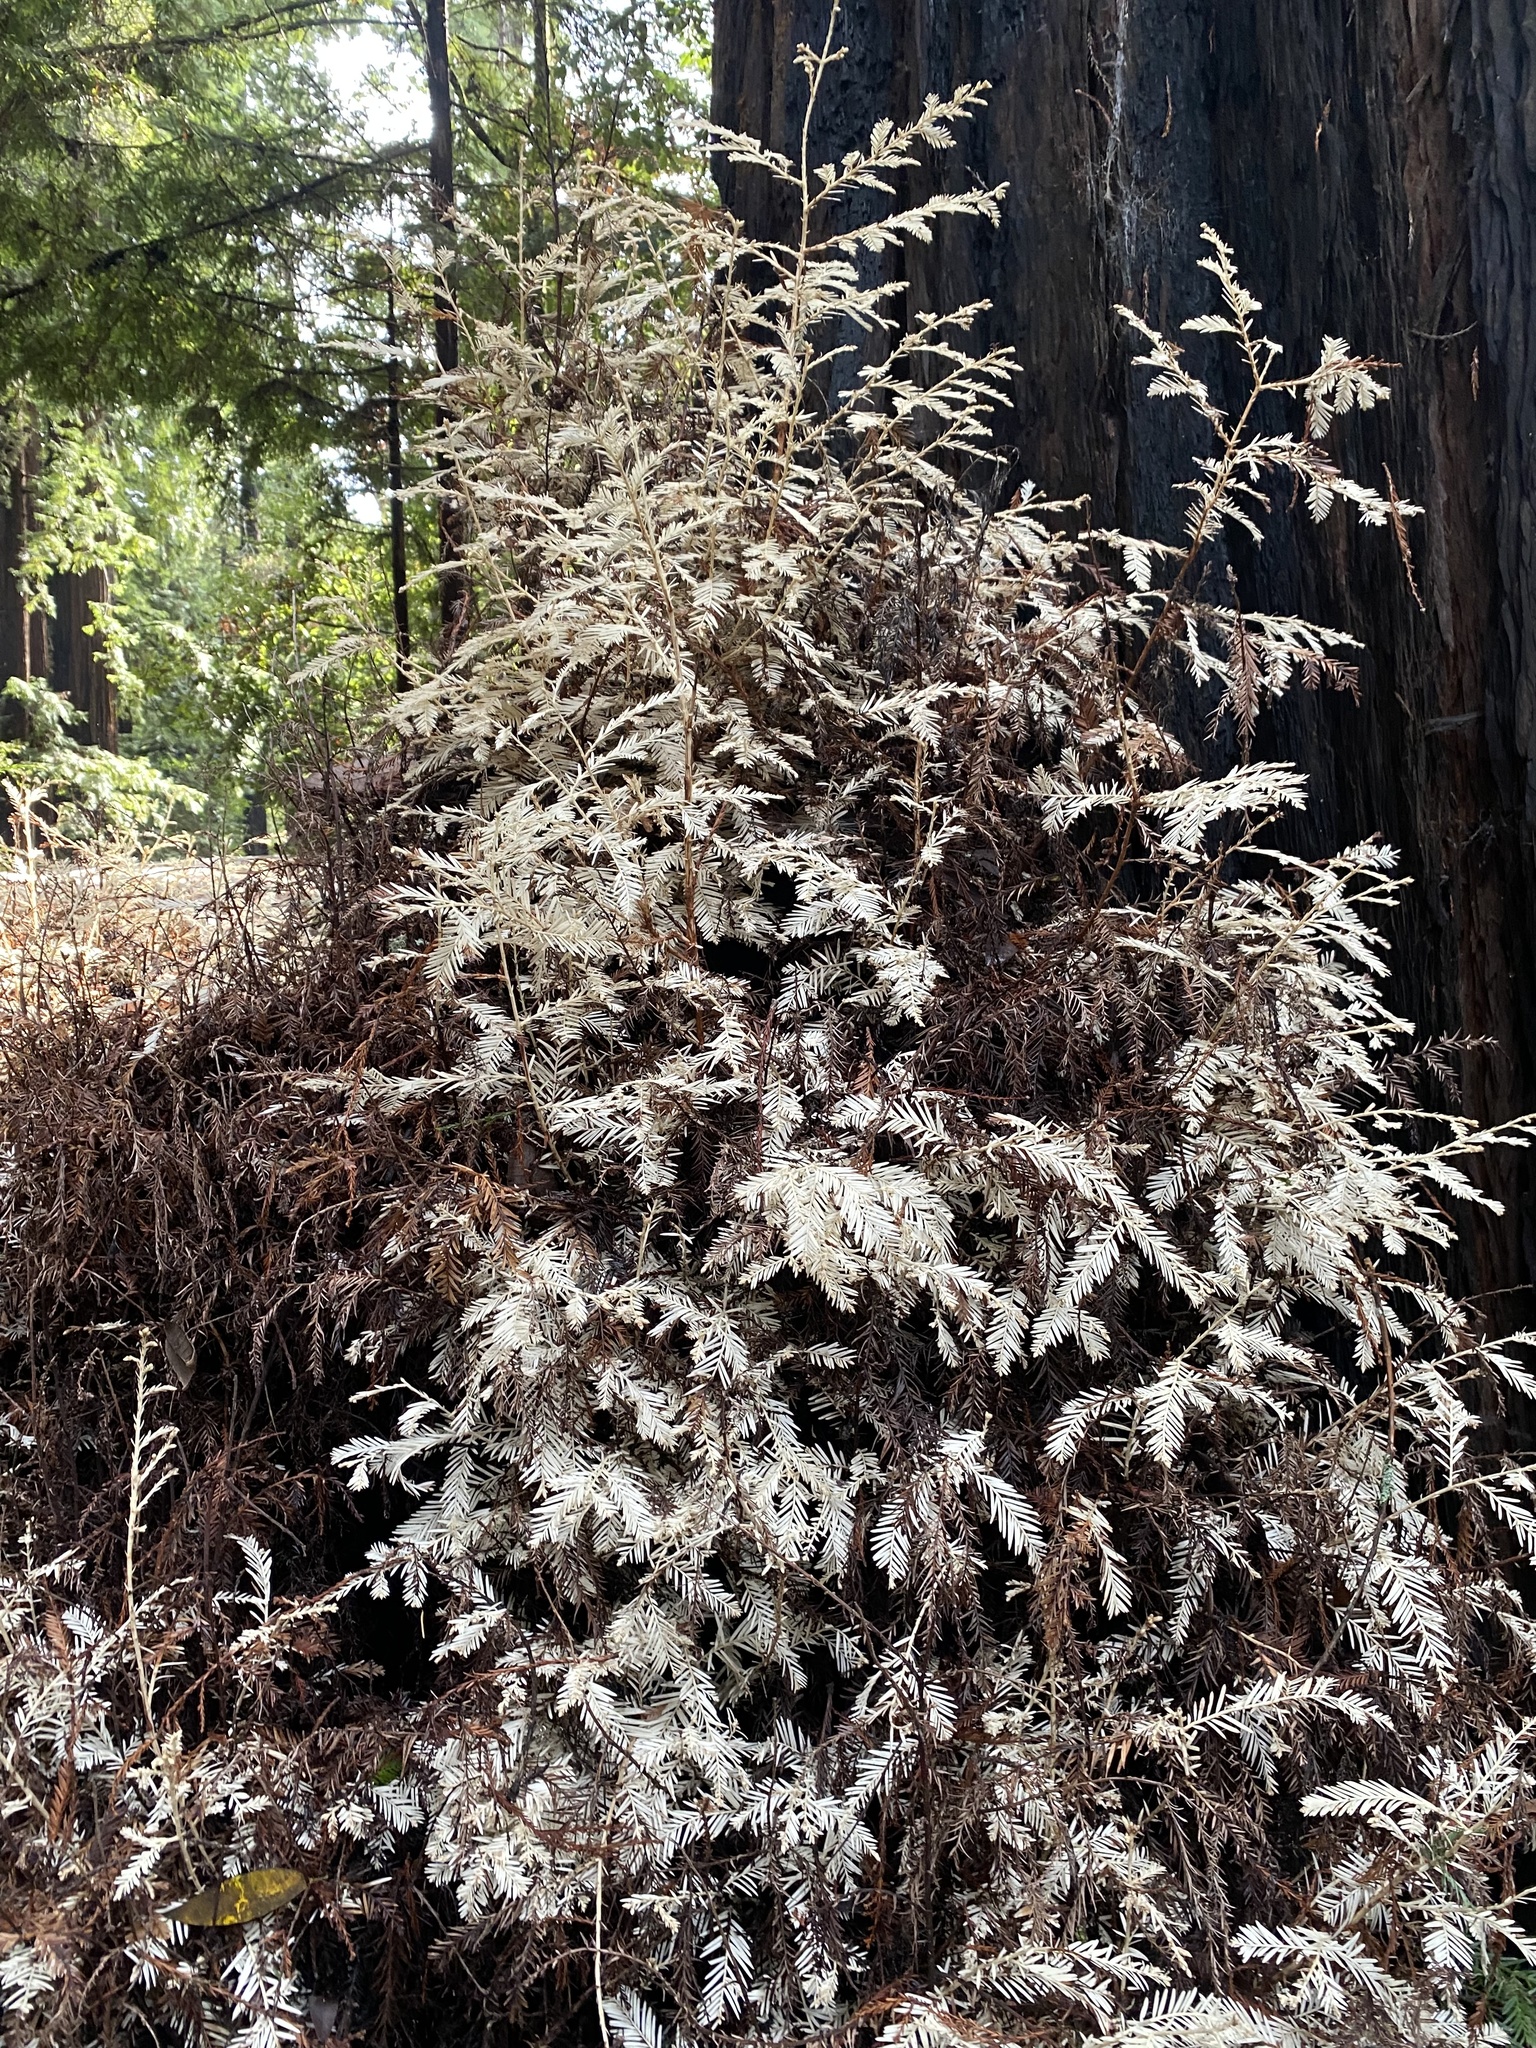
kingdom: Plantae
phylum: Tracheophyta
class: Pinopsida
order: Pinales
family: Cupressaceae
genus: Sequoia
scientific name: Sequoia sempervirens
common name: Coast redwood
